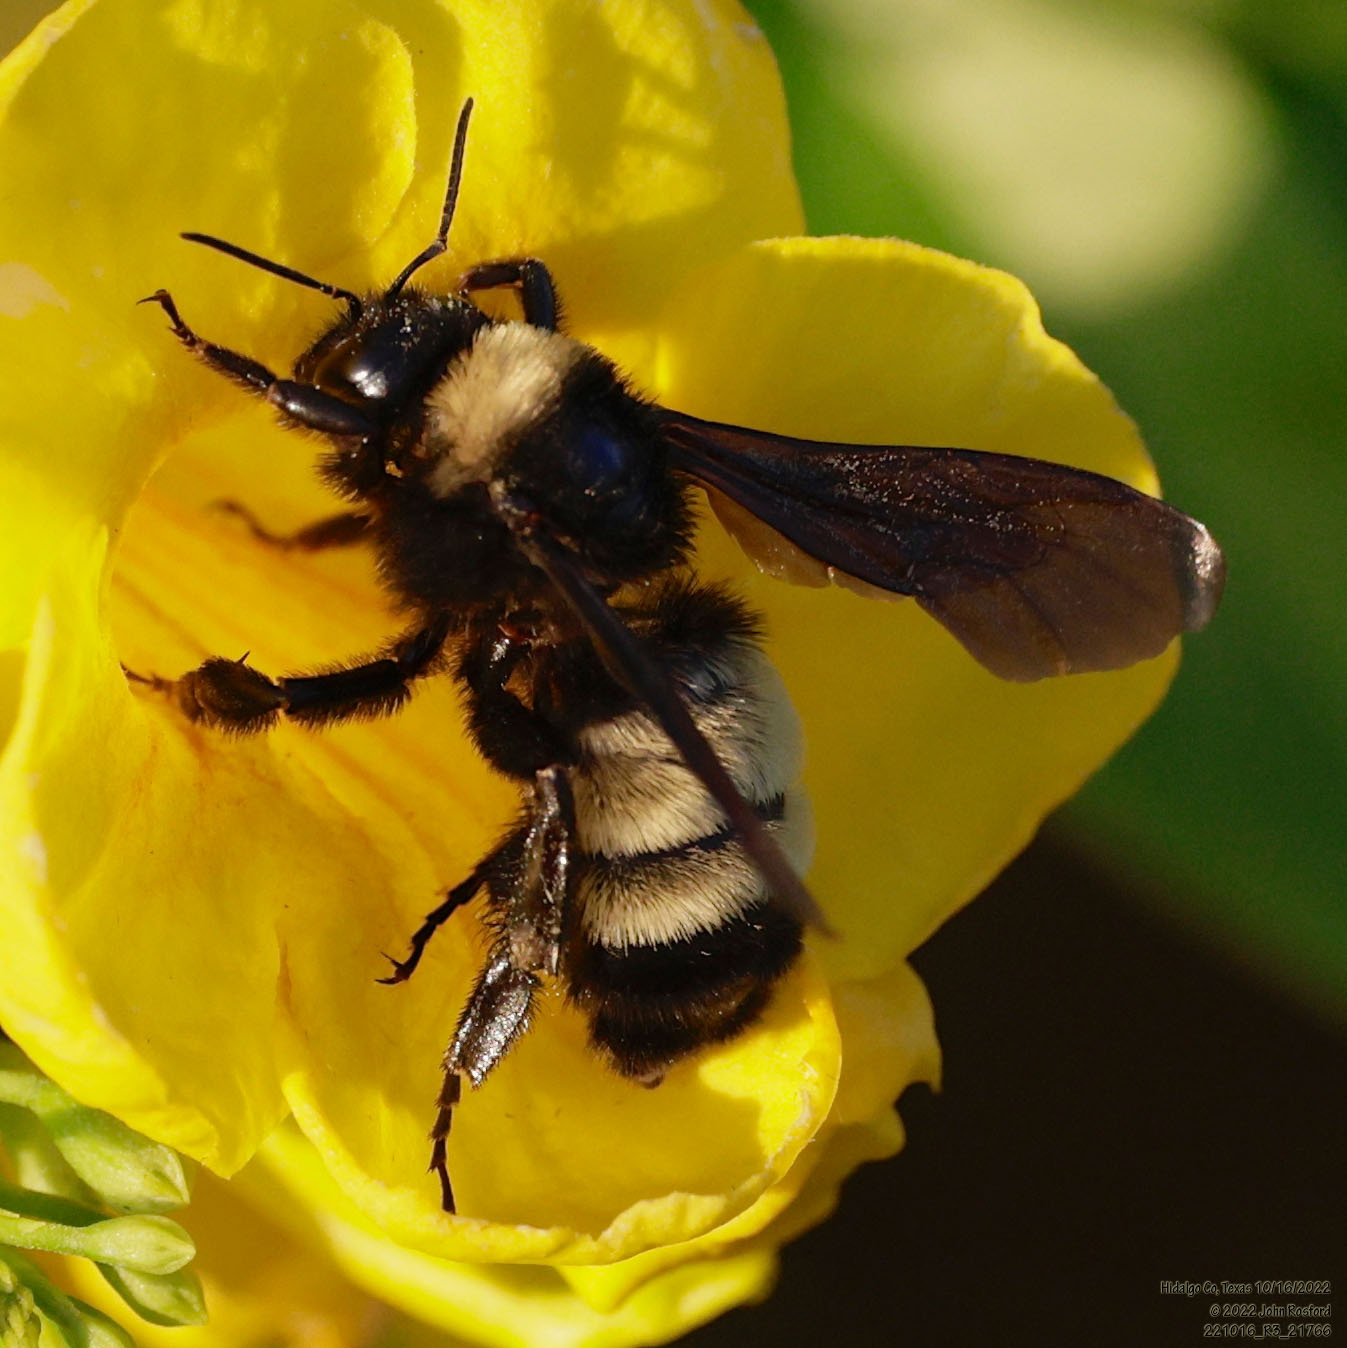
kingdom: Animalia
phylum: Arthropoda
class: Insecta
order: Hymenoptera
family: Apidae
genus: Bombus
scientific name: Bombus pensylvanicus
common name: Bumble bee
